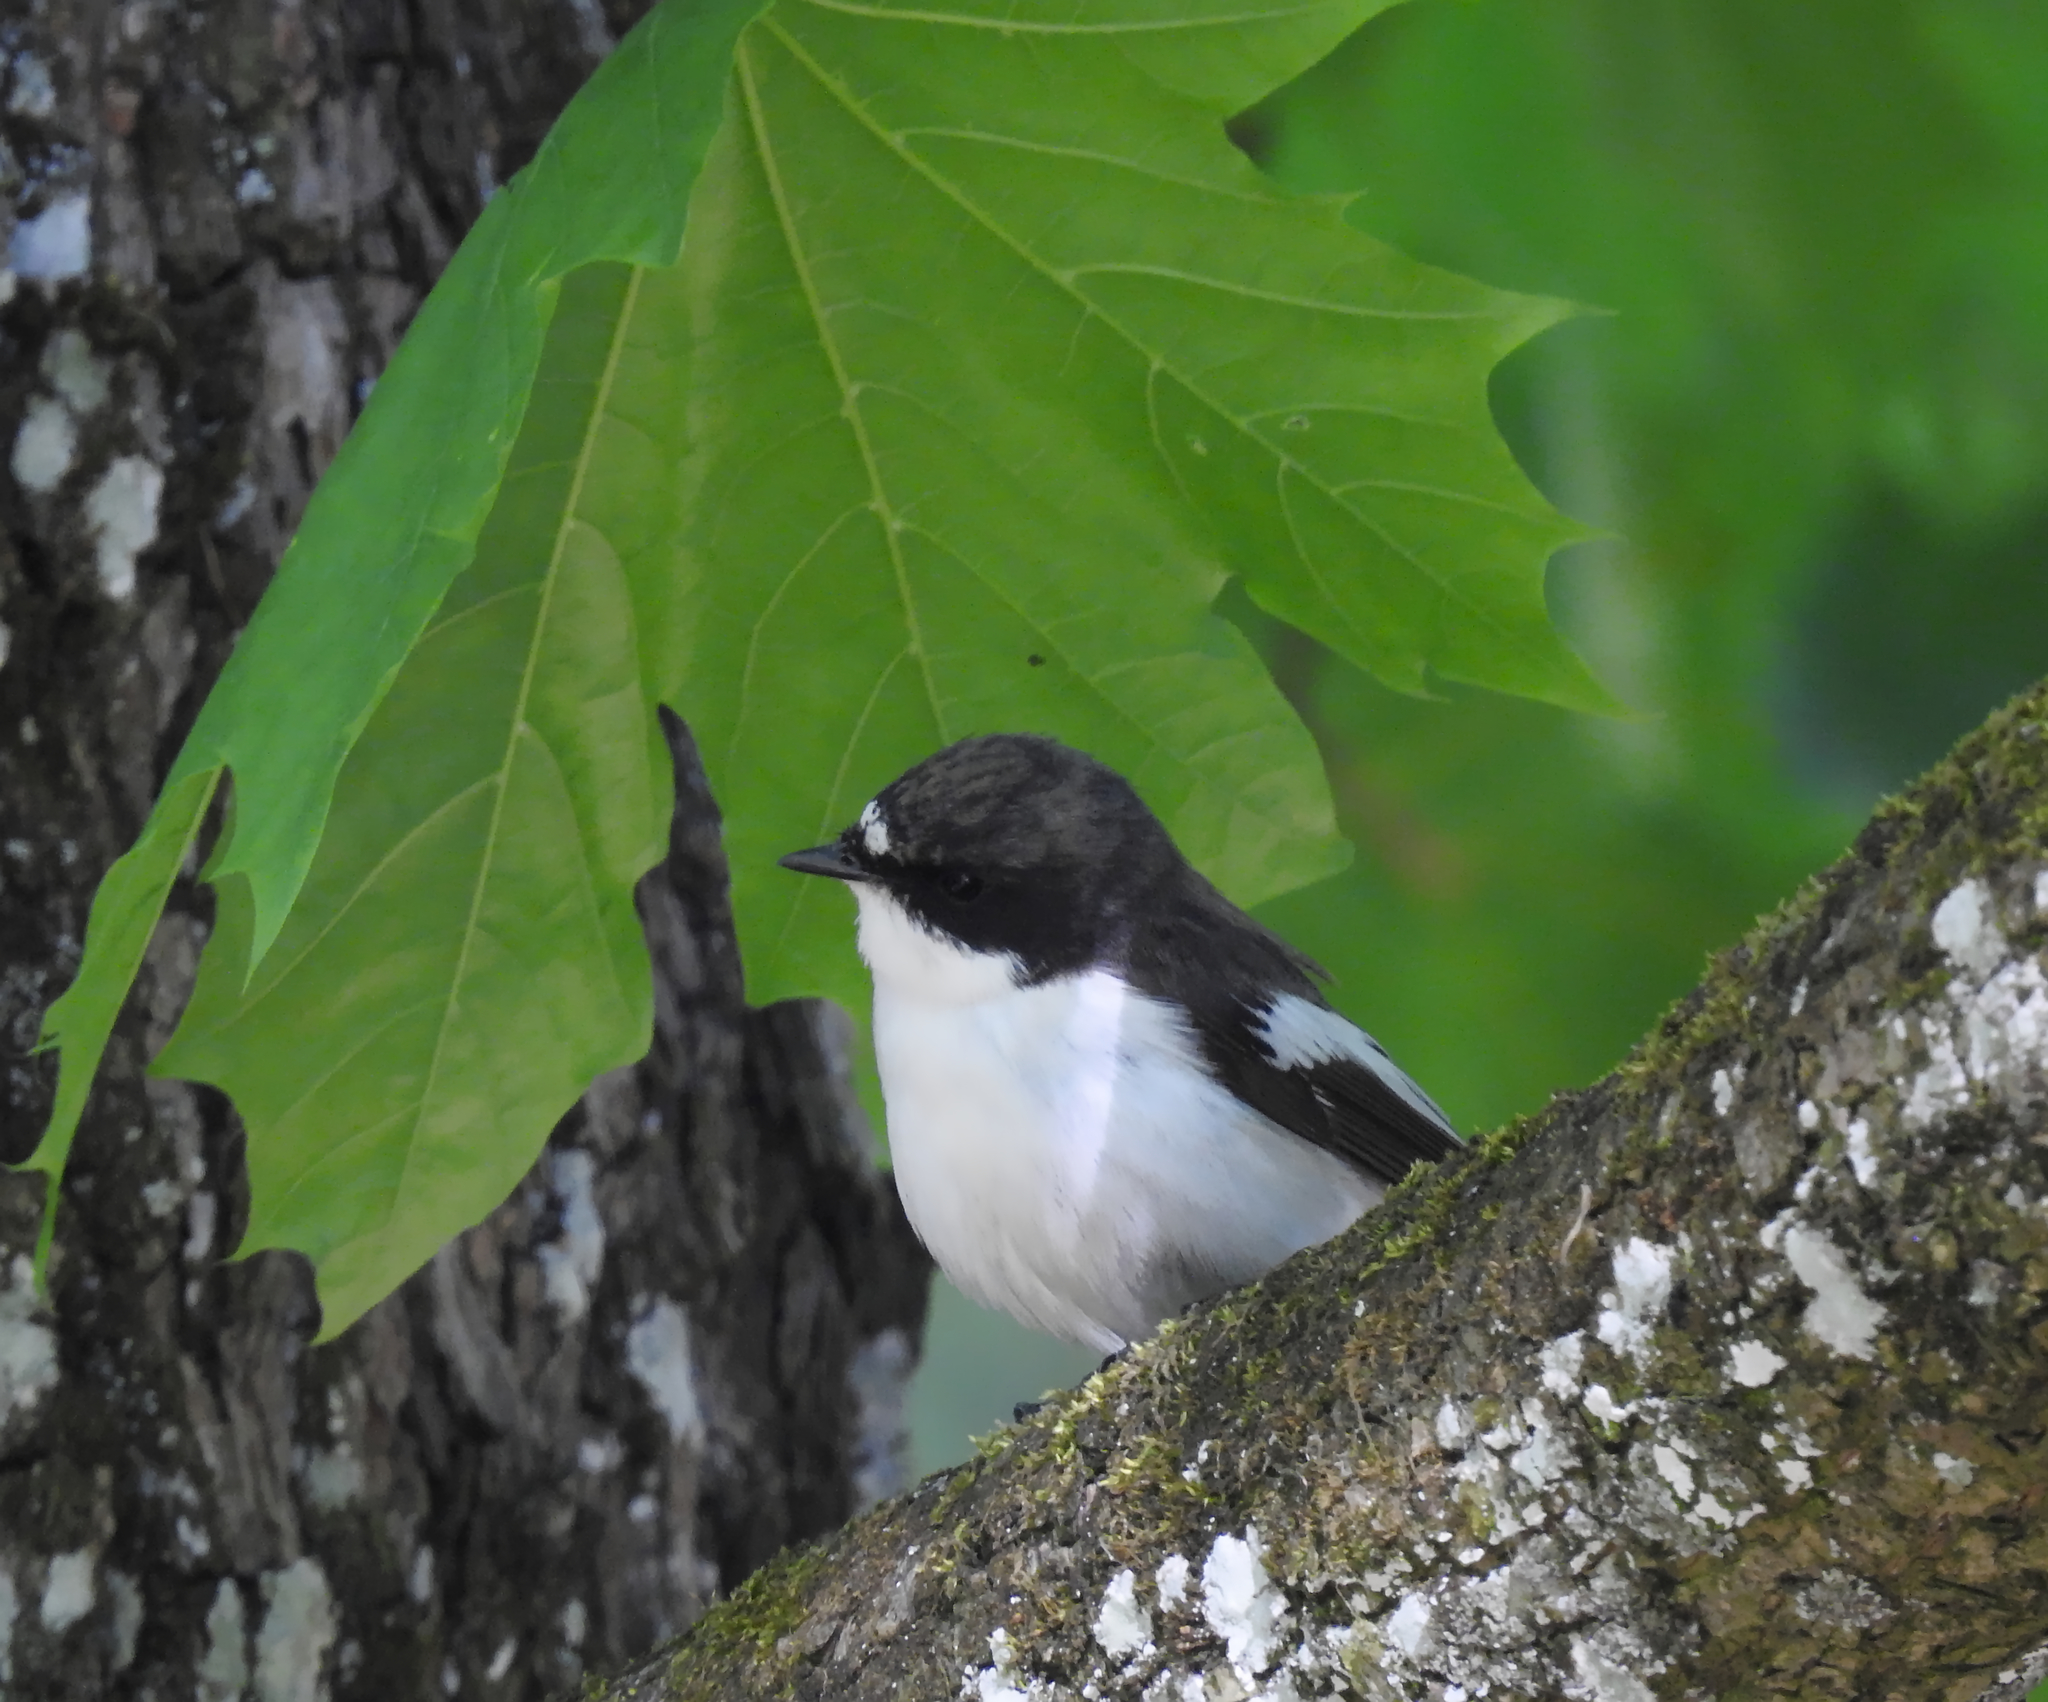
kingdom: Animalia
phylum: Chordata
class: Aves
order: Passeriformes
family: Muscicapidae
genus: Ficedula
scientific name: Ficedula hypoleuca
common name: European pied flycatcher
